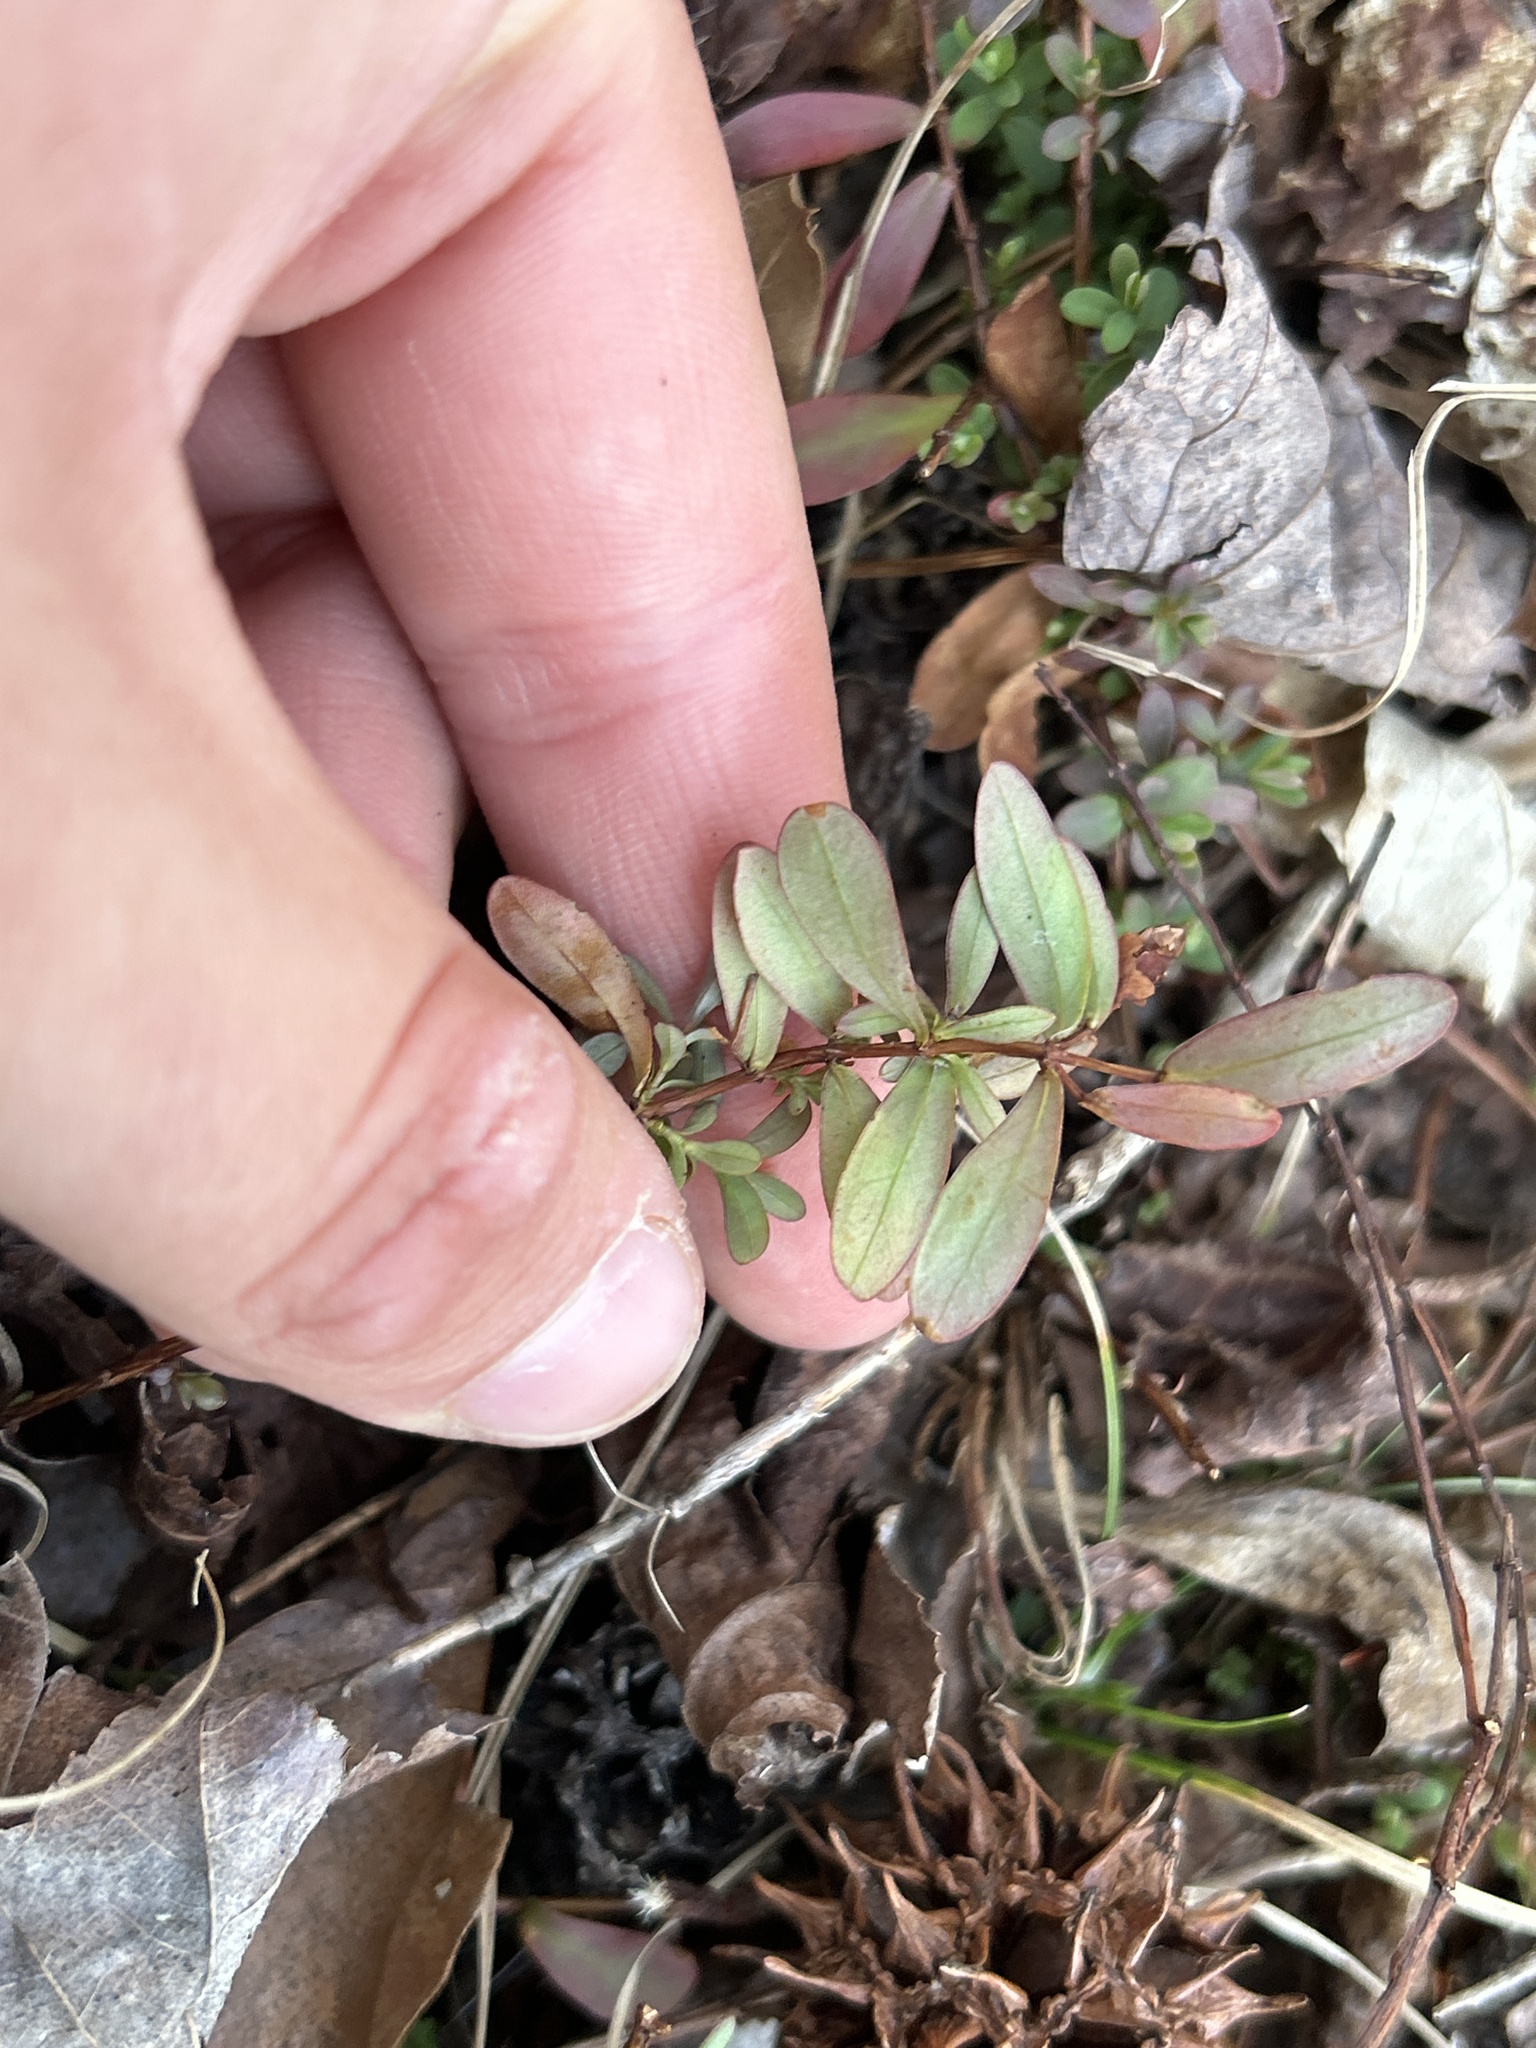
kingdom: Plantae
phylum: Tracheophyta
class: Magnoliopsida
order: Malpighiales
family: Hypericaceae
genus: Hypericum
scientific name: Hypericum hypericoides
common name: St. andrew's cross
